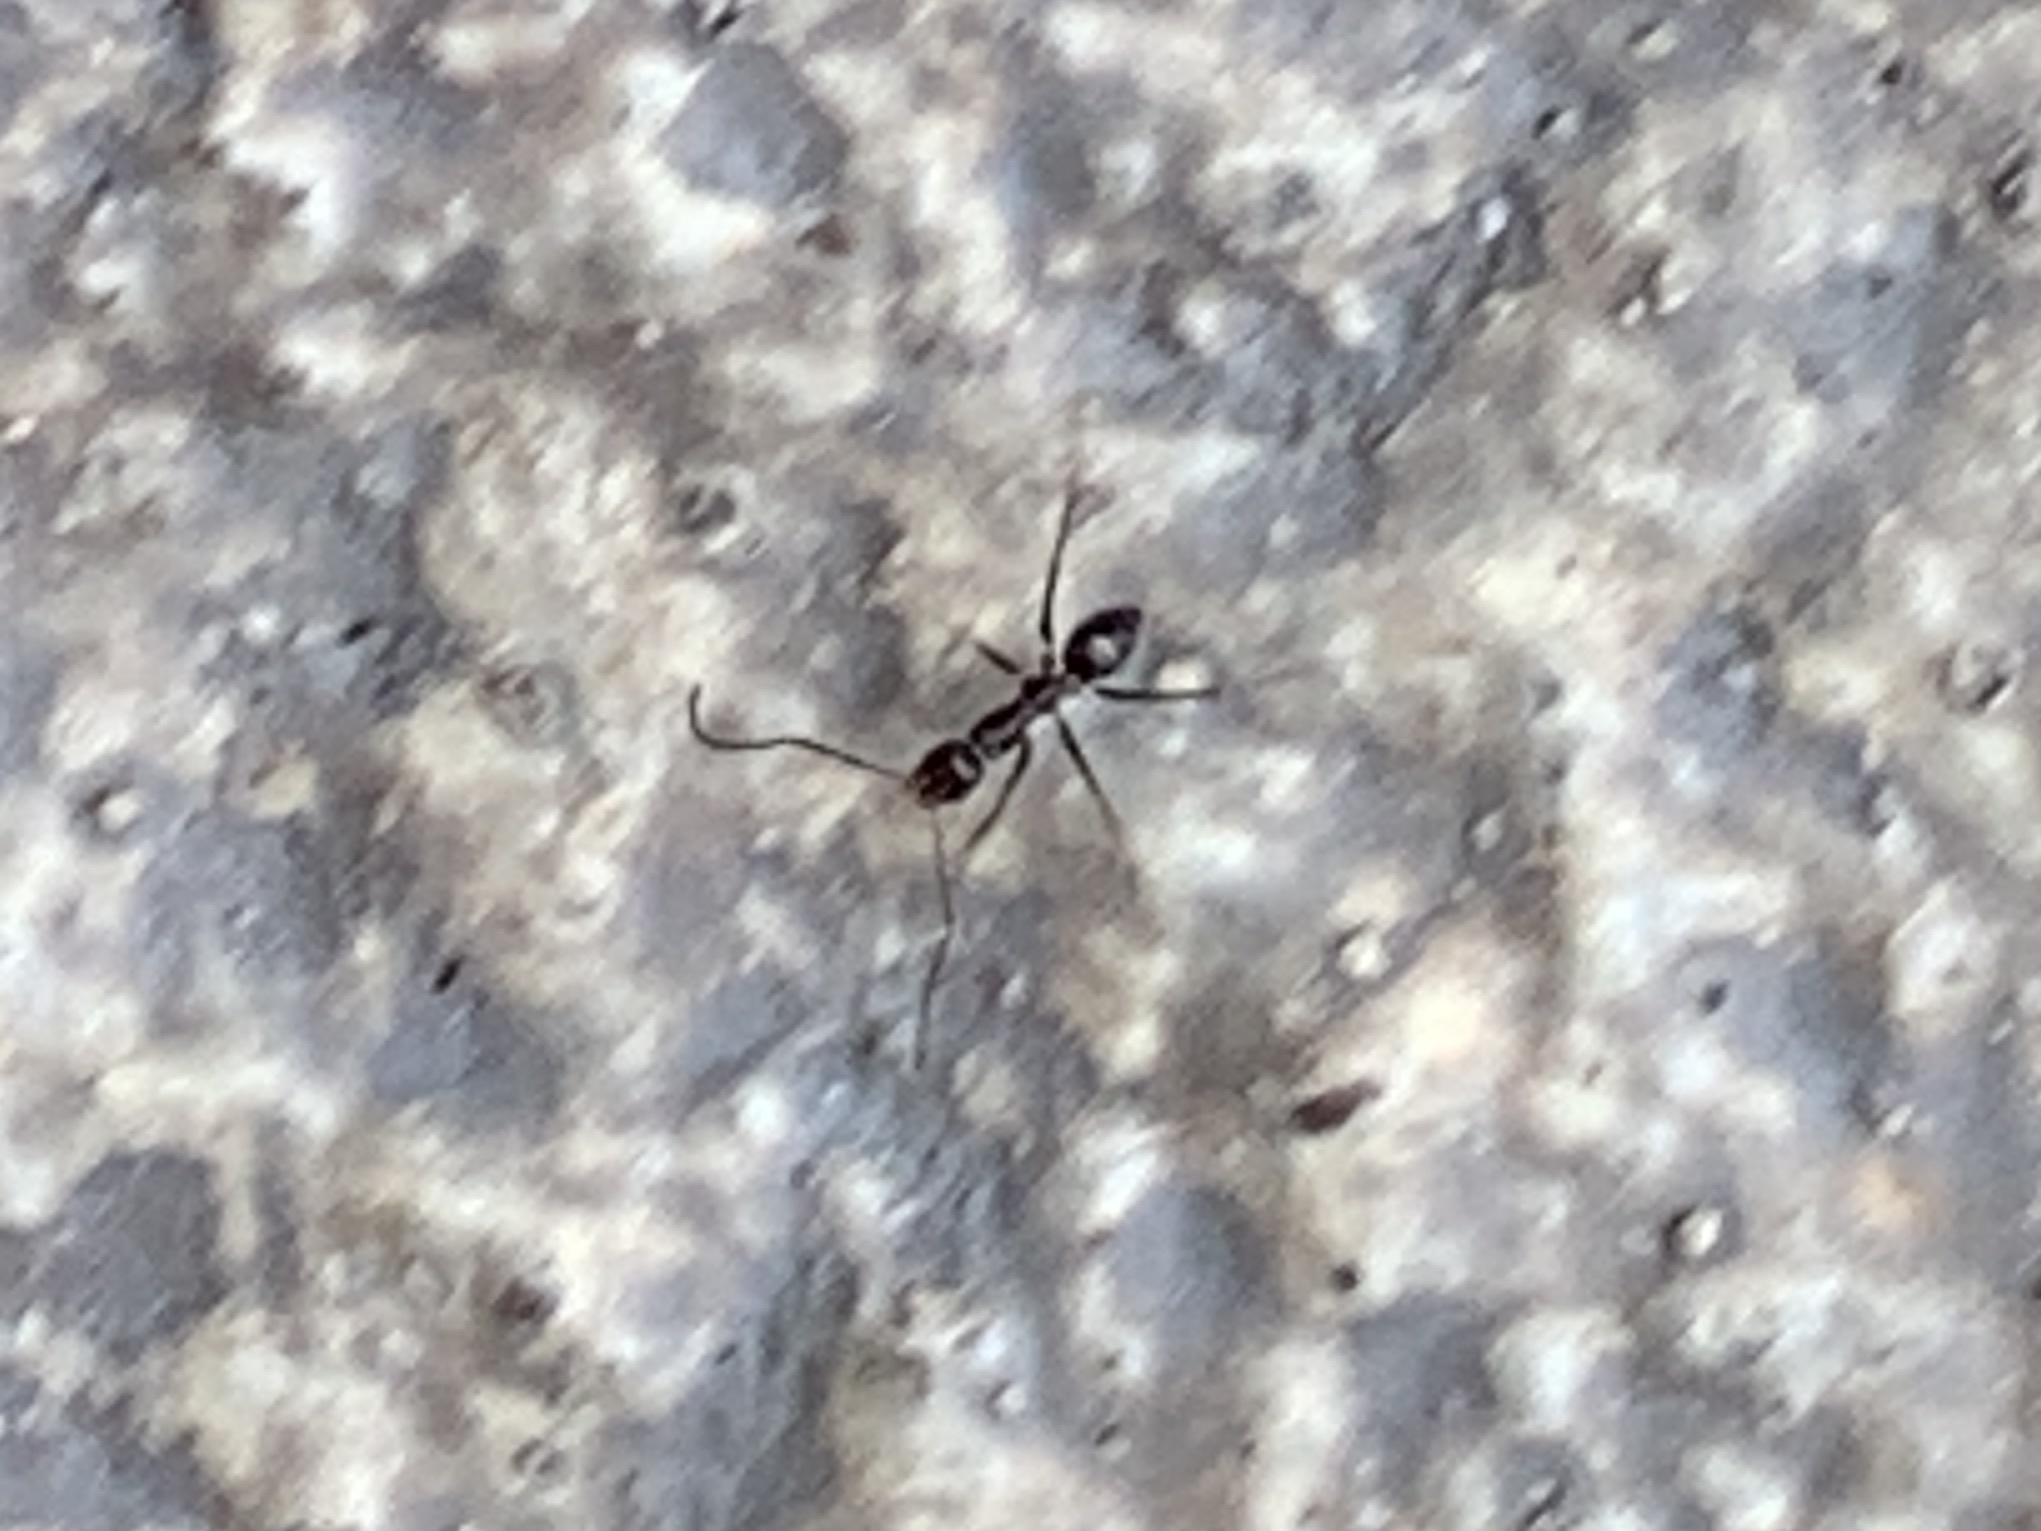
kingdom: Animalia
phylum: Arthropoda
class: Insecta
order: Hymenoptera
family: Formicidae
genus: Paratrechina
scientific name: Paratrechina longicornis
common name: Longhorned crazy ant
